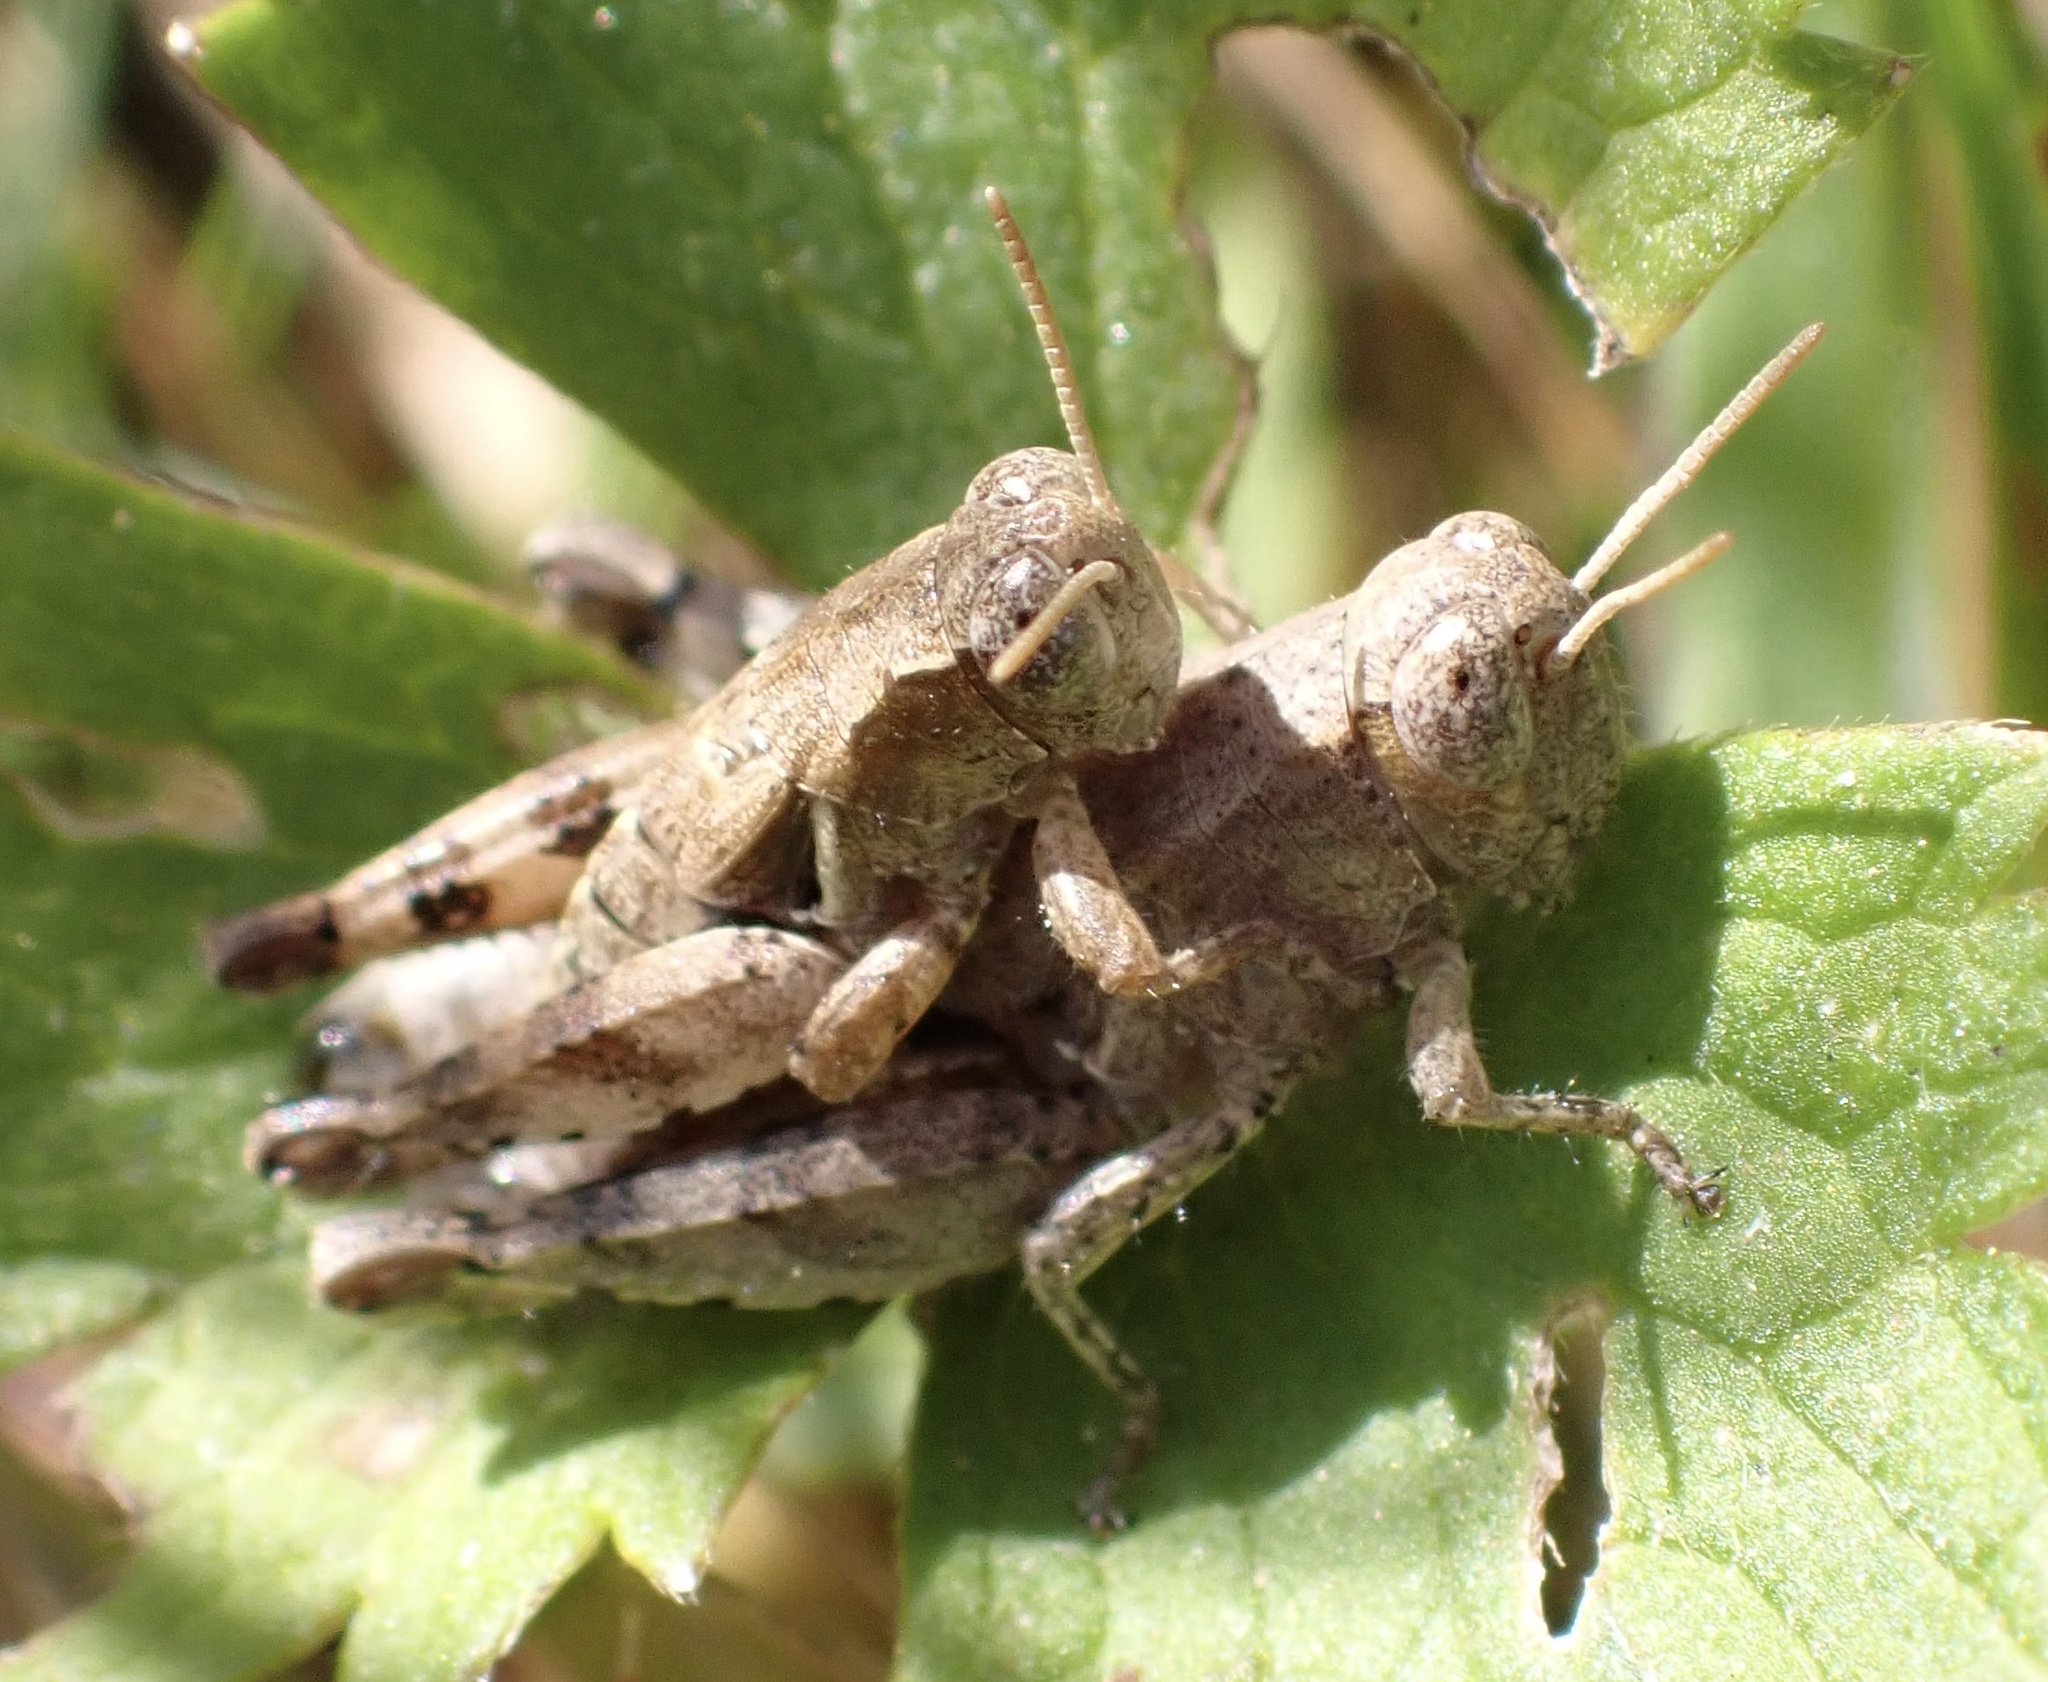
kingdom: Animalia
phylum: Arthropoda
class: Insecta
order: Orthoptera
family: Acrididae
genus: Pezotettix
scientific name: Pezotettix giornae
